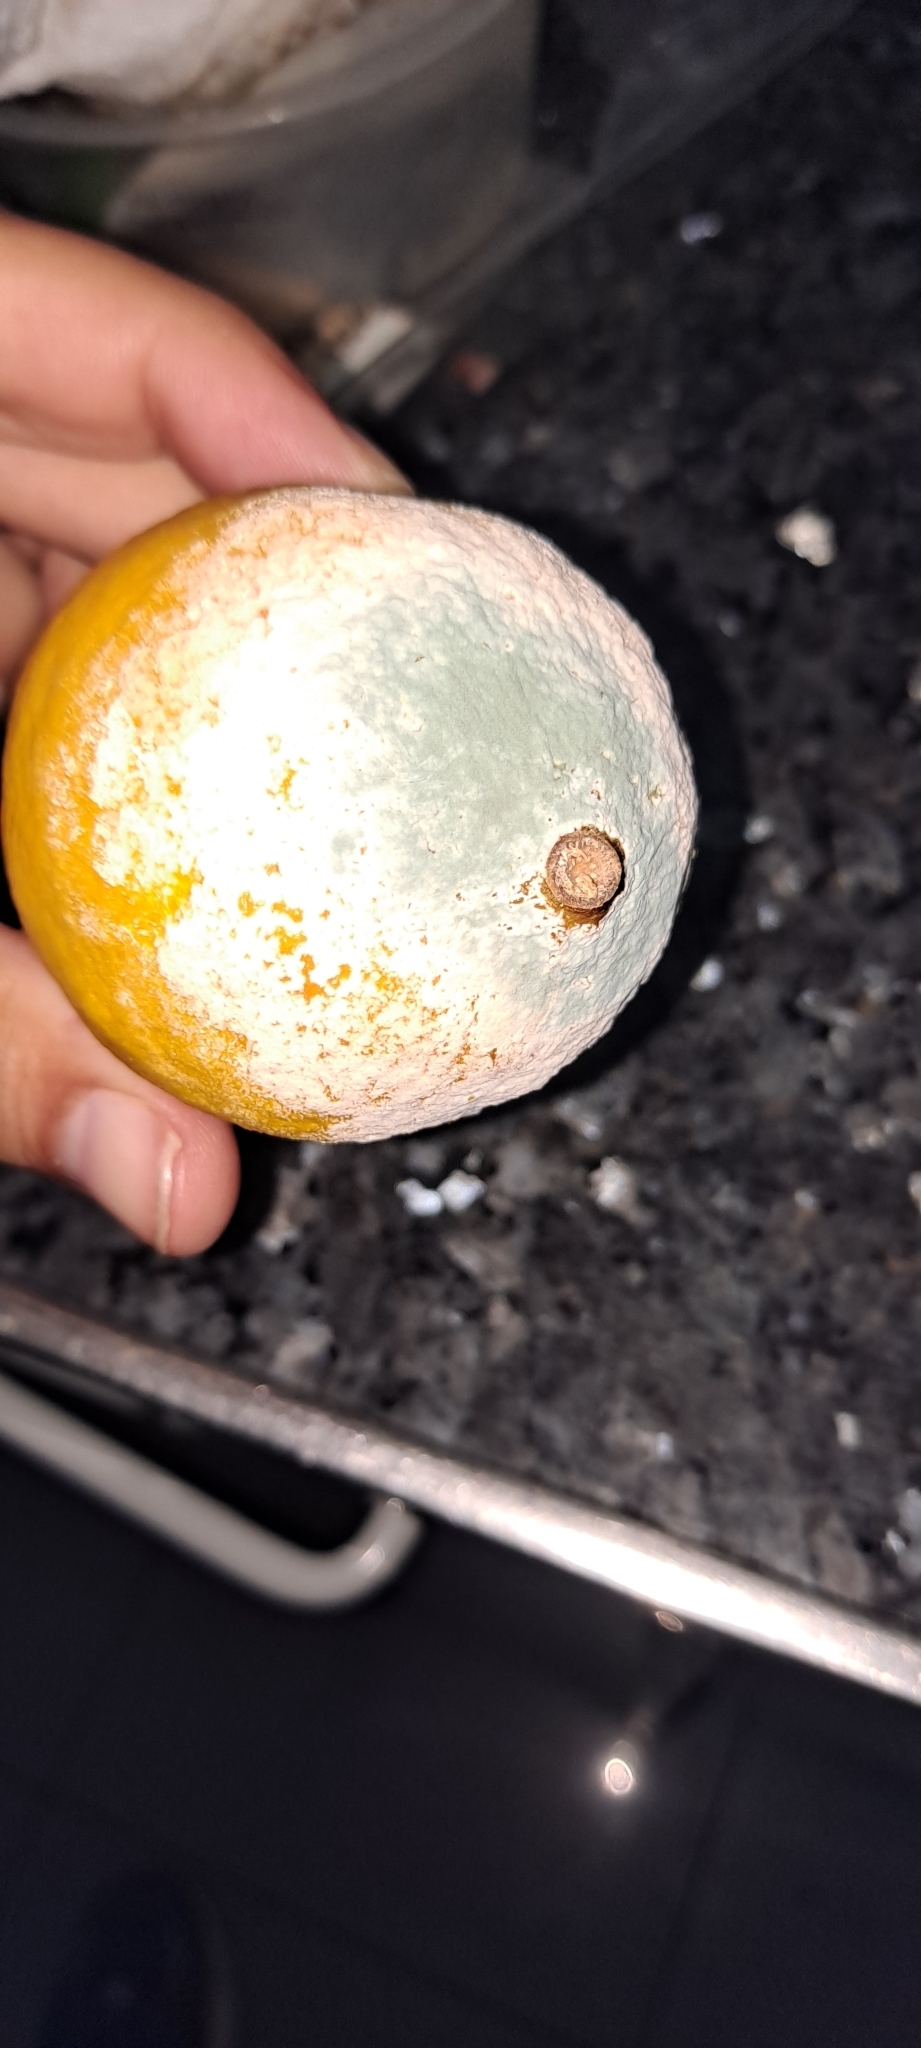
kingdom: Fungi
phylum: Ascomycota
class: Eurotiomycetes
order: Eurotiales
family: Aspergillaceae
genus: Penicillium
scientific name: Penicillium digitatum
